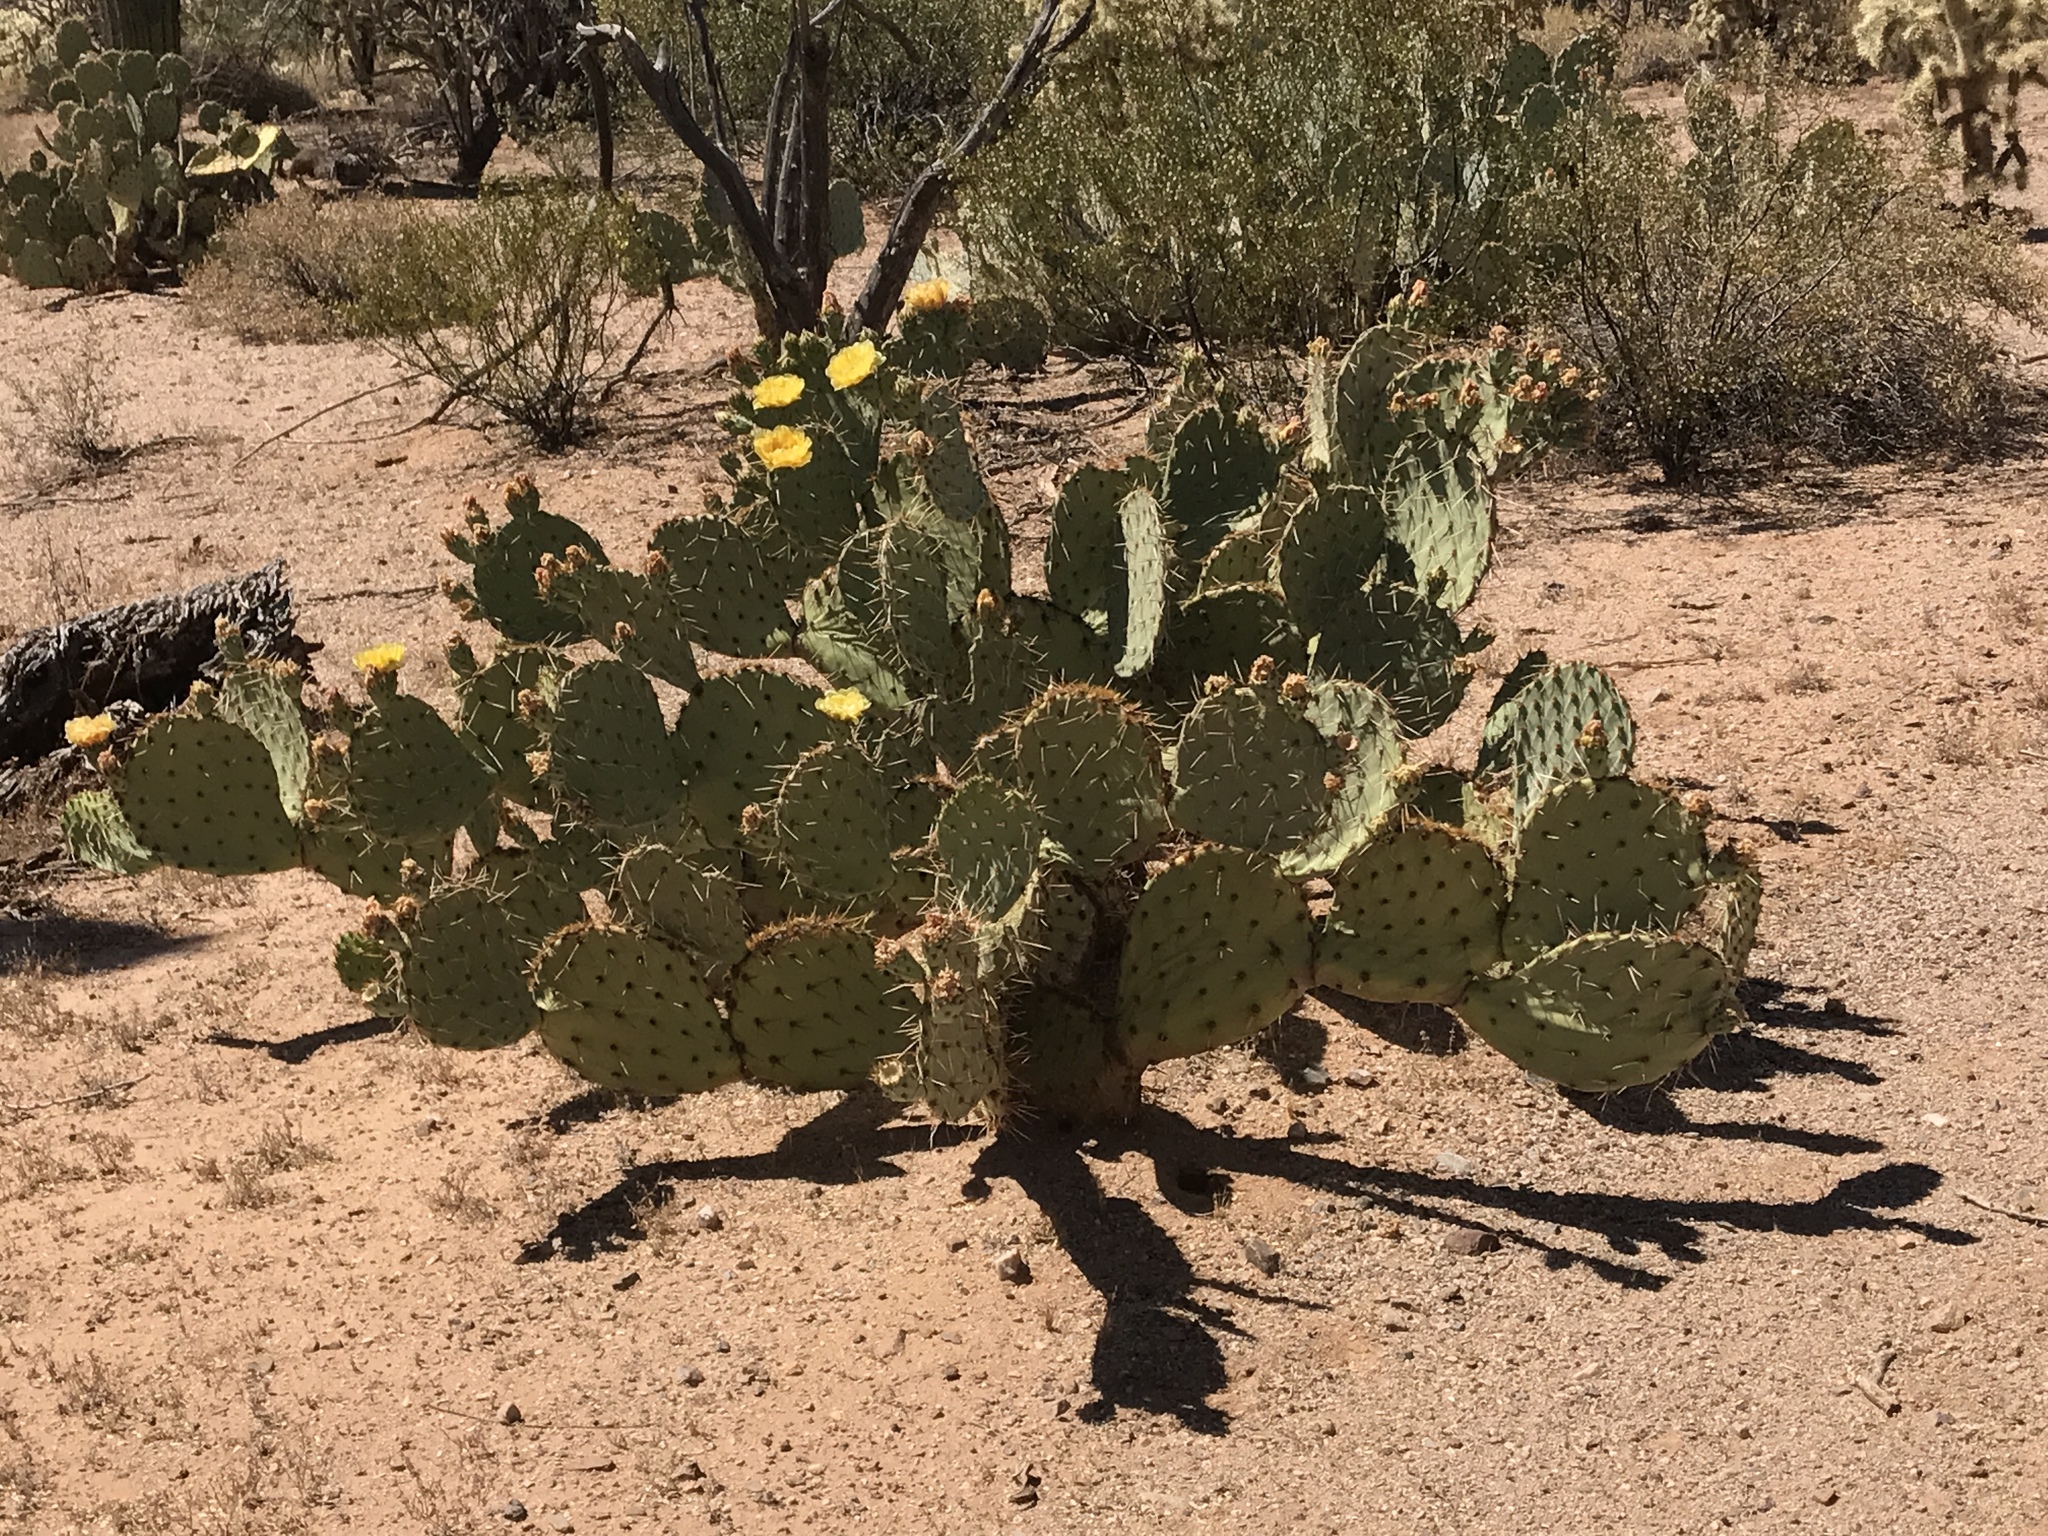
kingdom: Plantae
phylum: Tracheophyta
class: Magnoliopsida
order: Caryophyllales
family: Cactaceae
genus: Opuntia
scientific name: Opuntia engelmannii
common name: Cactus-apple
